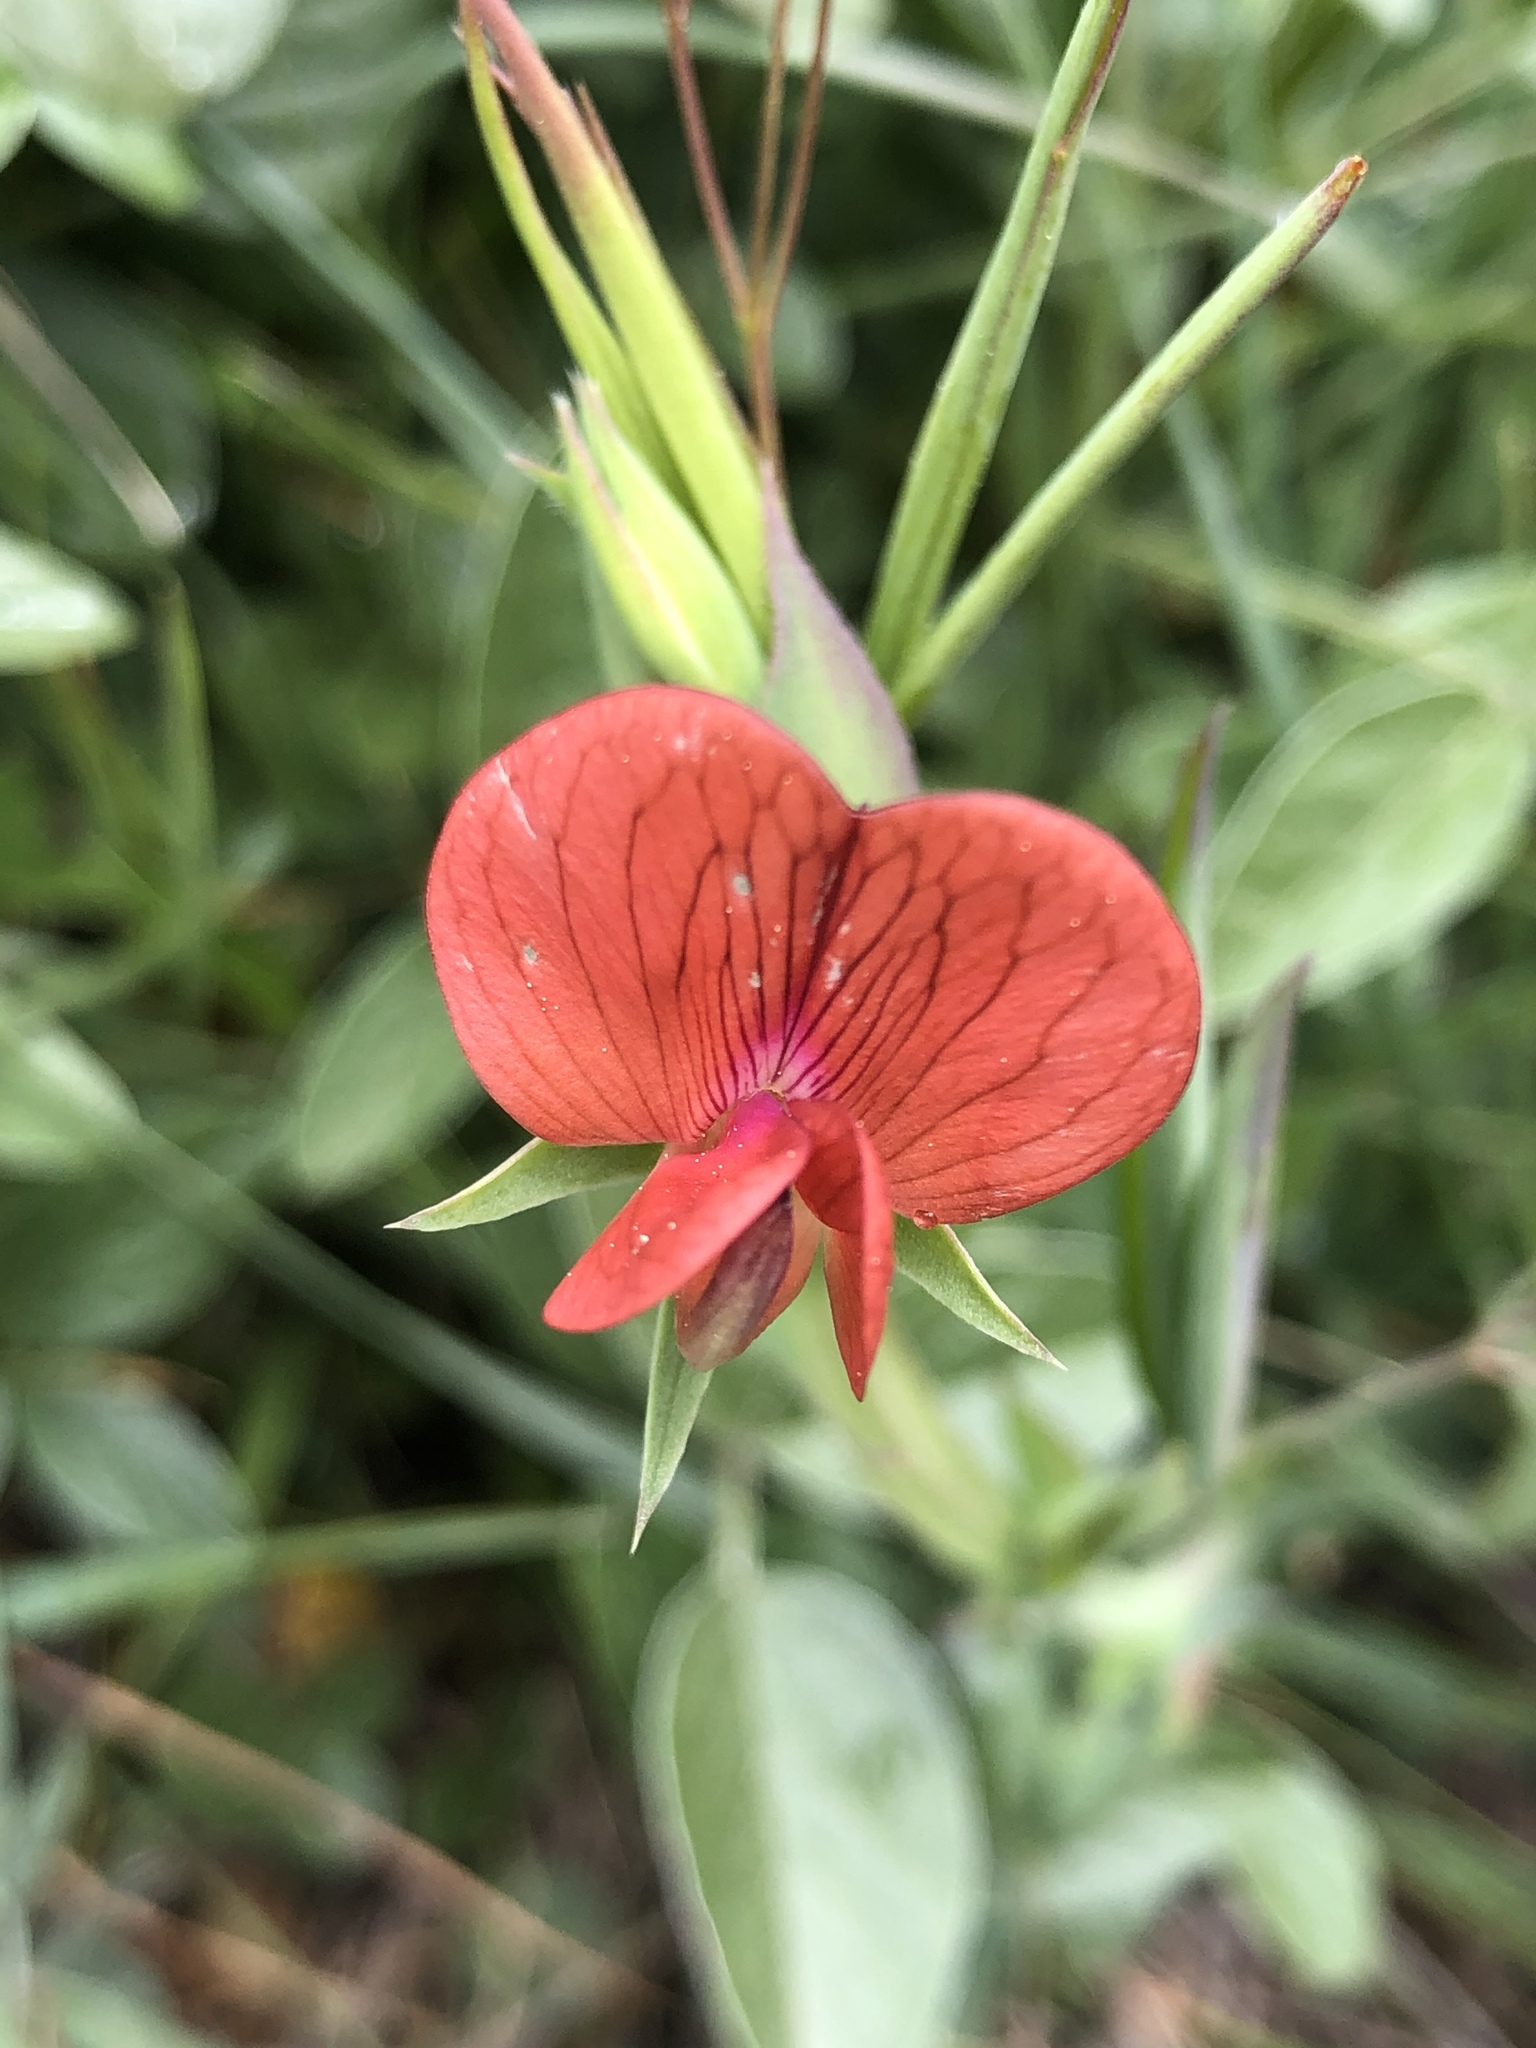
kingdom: Plantae
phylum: Tracheophyta
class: Magnoliopsida
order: Fabales
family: Fabaceae
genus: Lathyrus
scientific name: Lathyrus cicera
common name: Red vetchling
